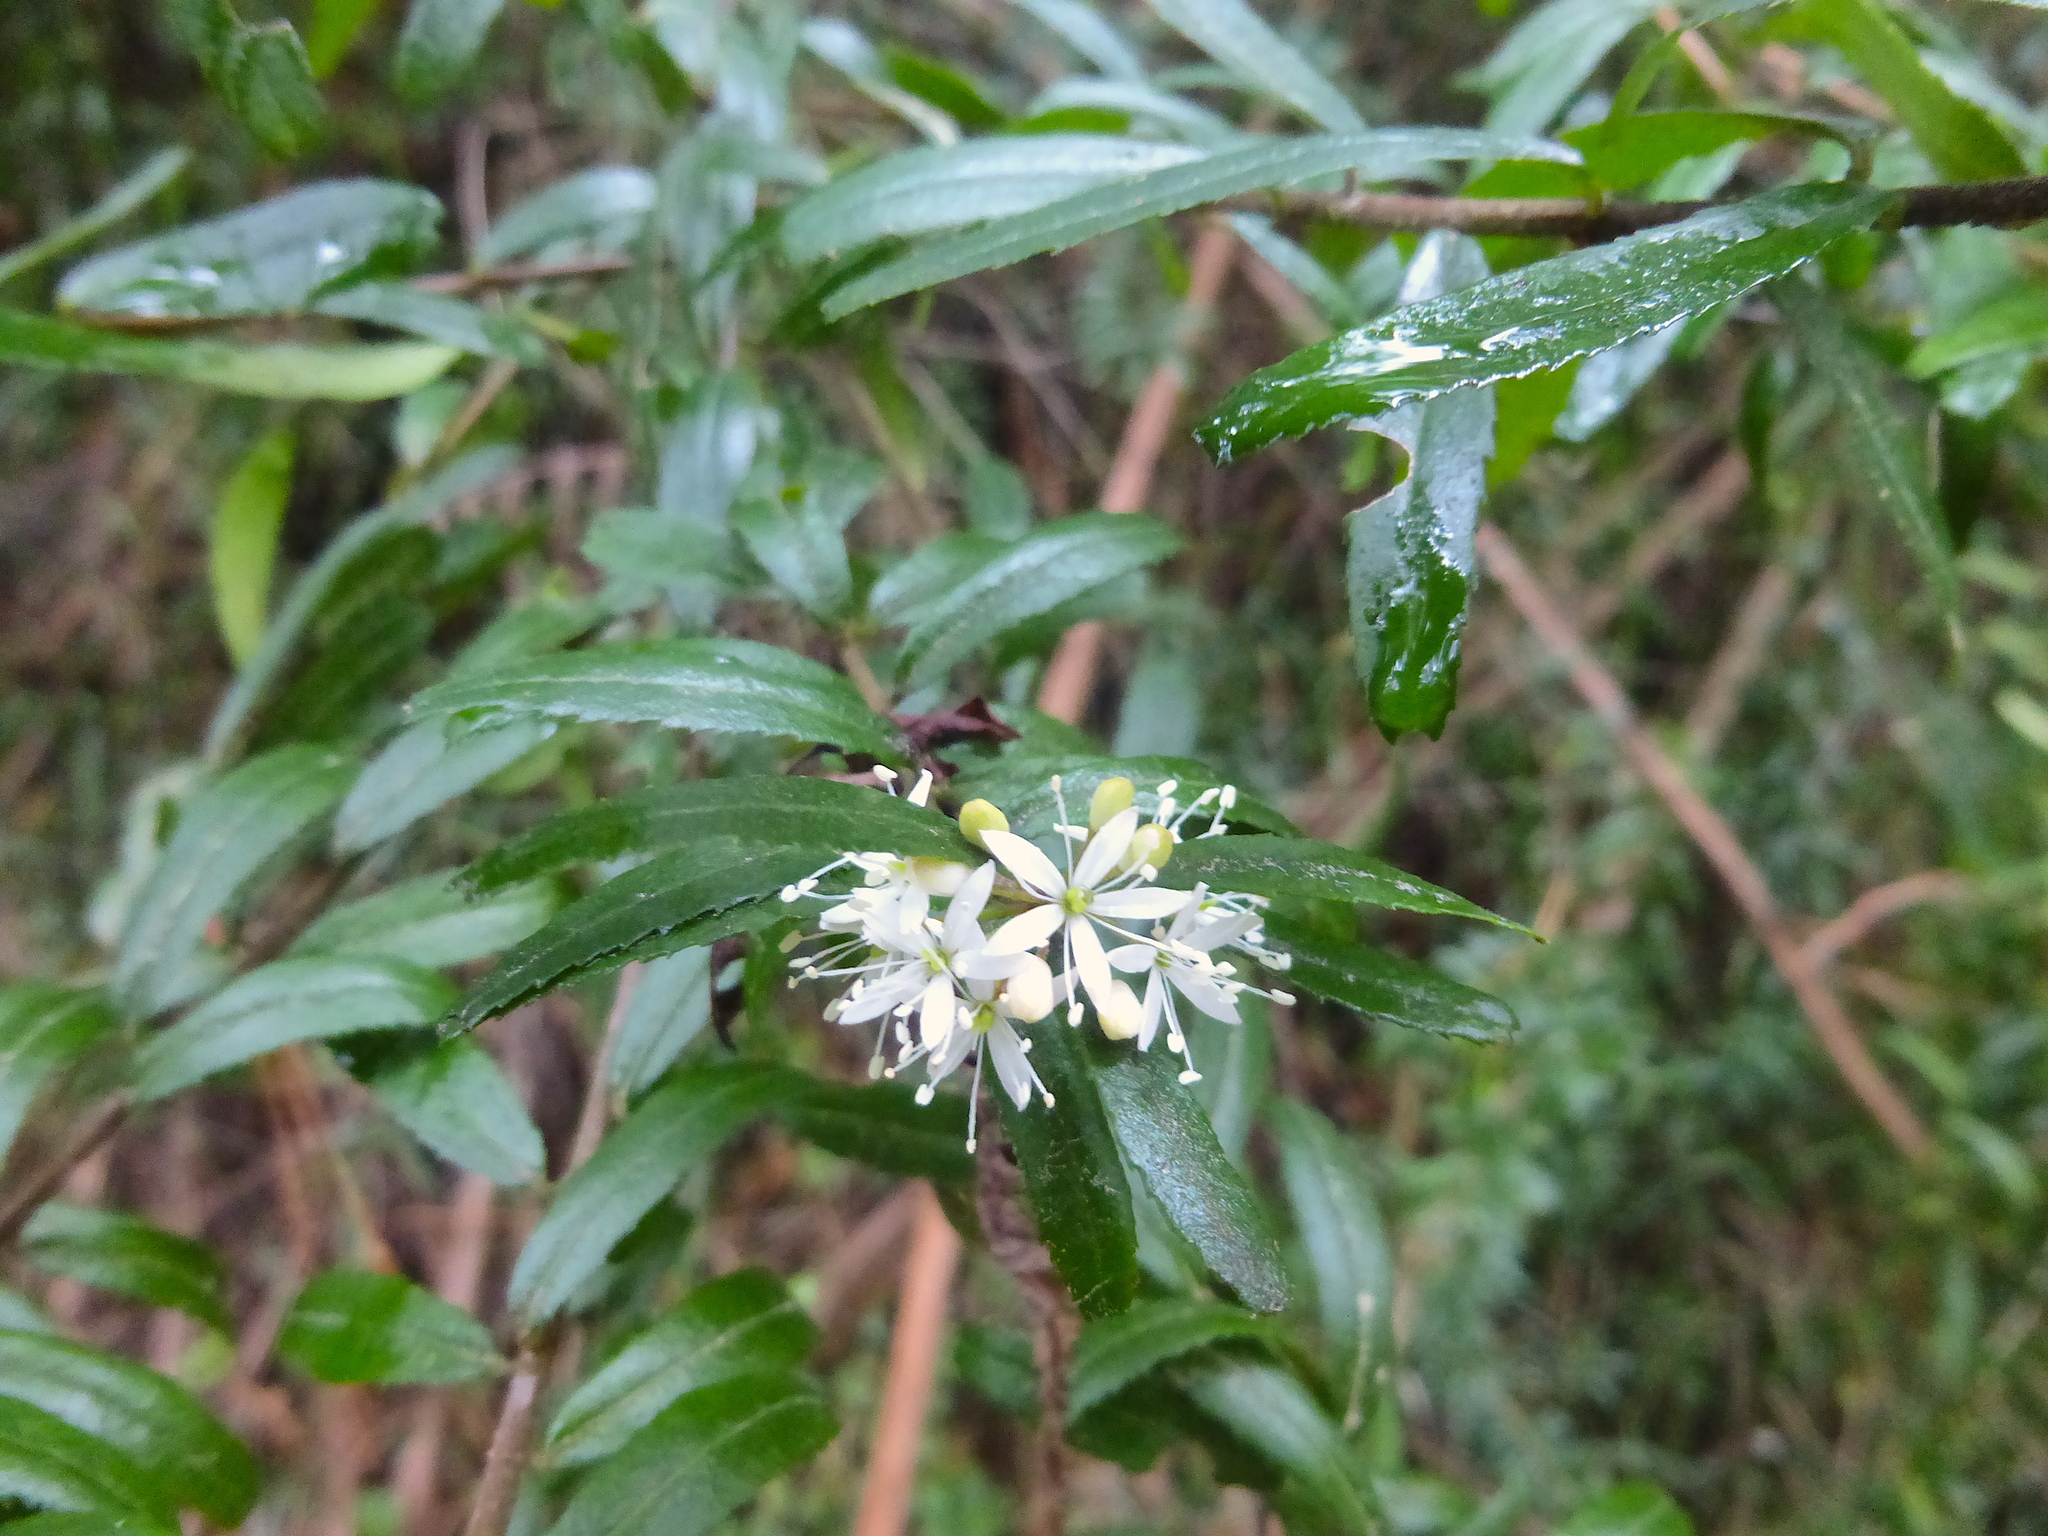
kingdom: Plantae
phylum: Tracheophyta
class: Magnoliopsida
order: Sapindales
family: Rutaceae
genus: Leionema
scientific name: Leionema bilobum
